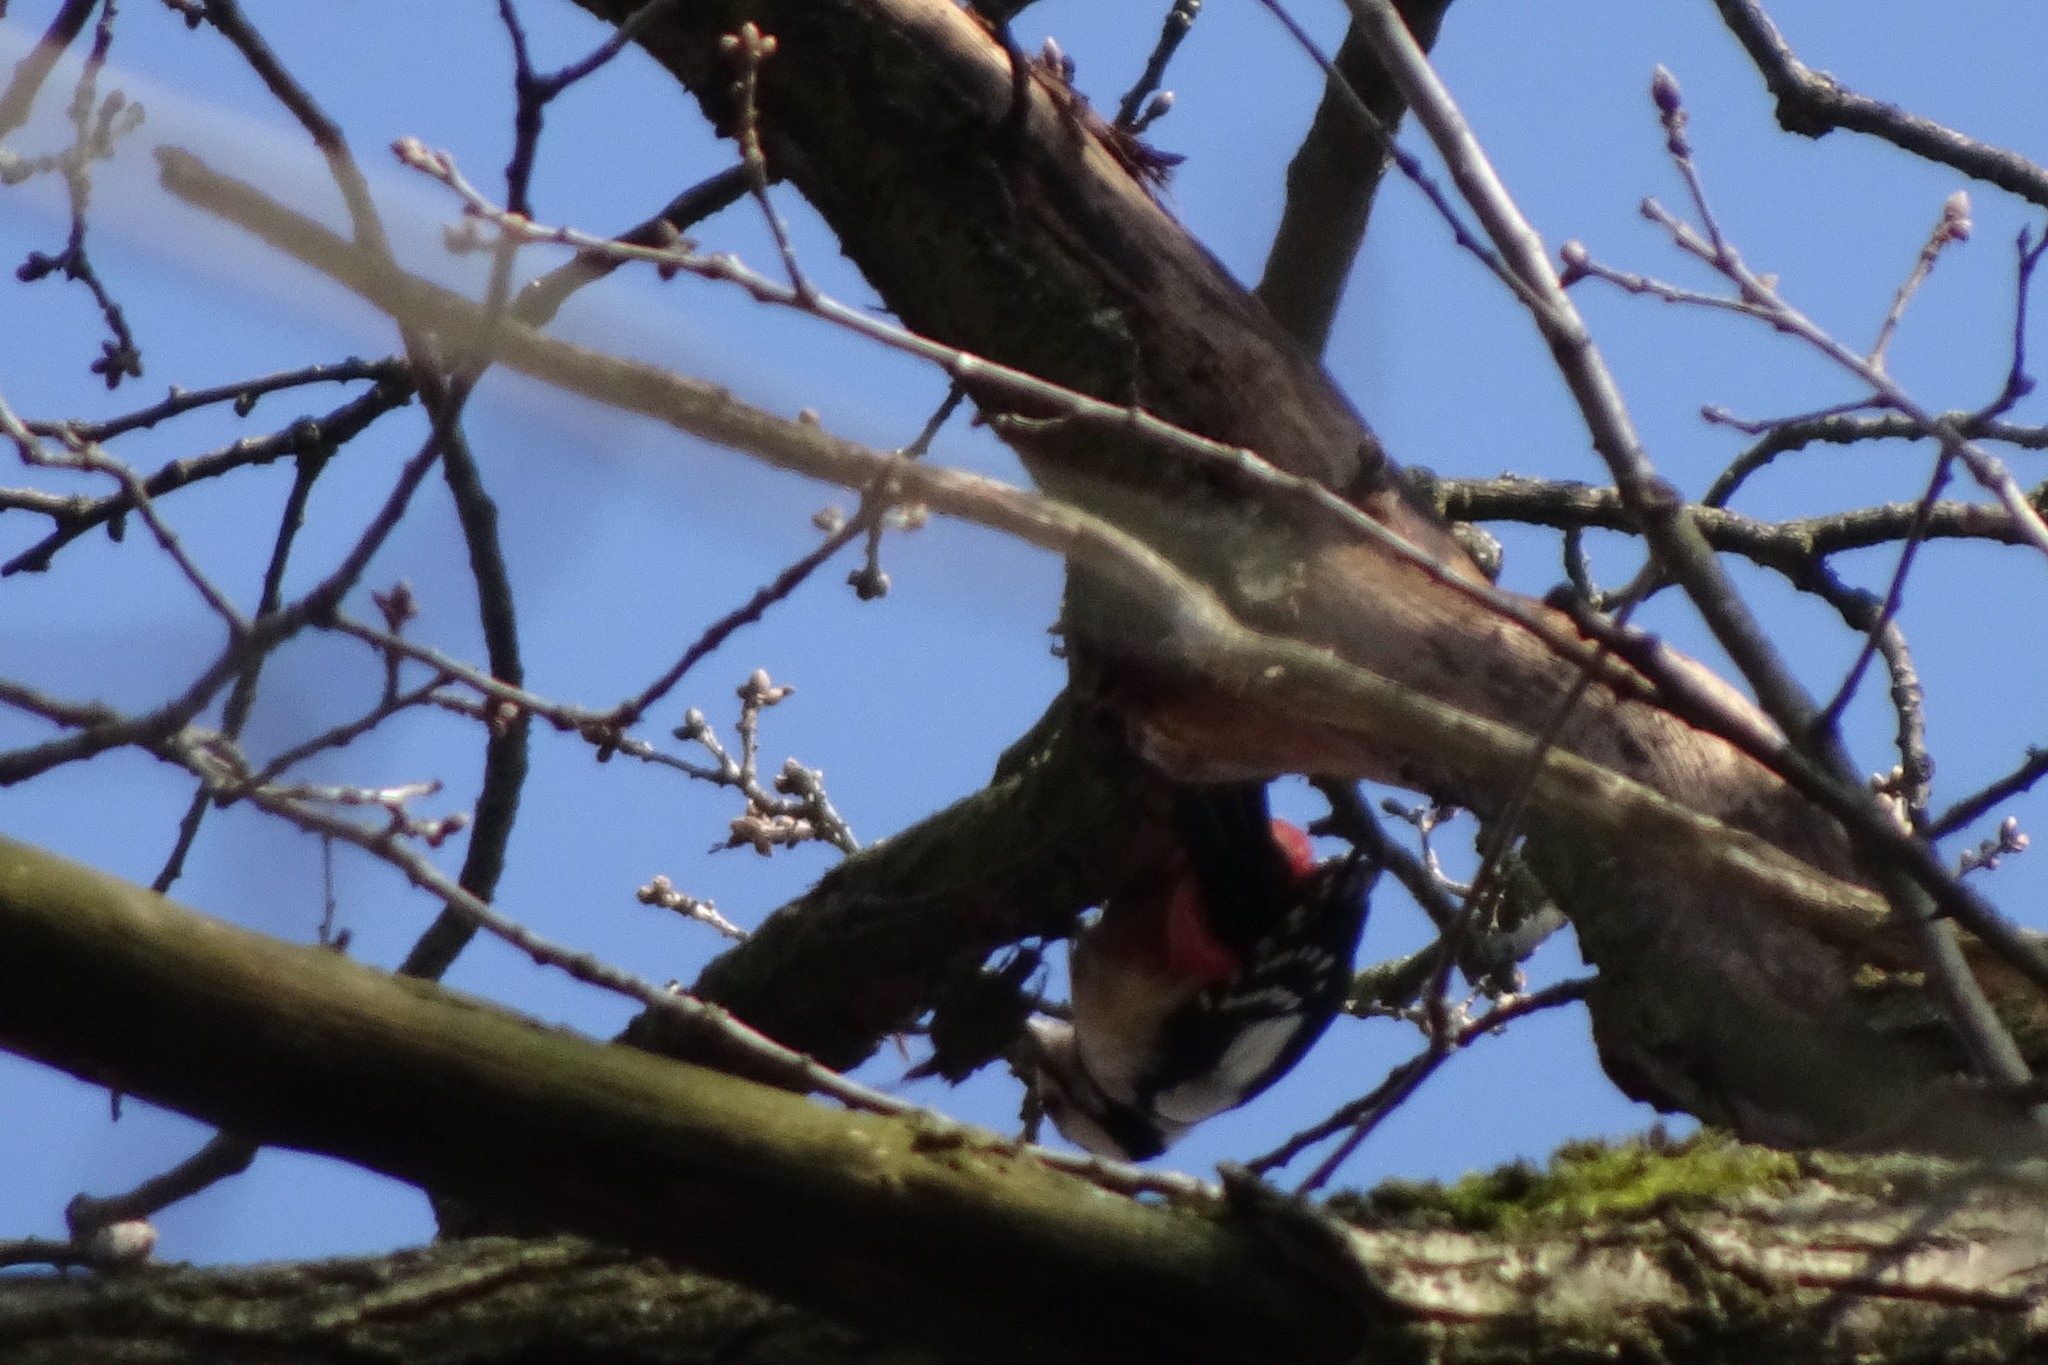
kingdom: Animalia
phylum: Chordata
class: Aves
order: Piciformes
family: Picidae
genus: Dendrocopos
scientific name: Dendrocopos major
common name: Great spotted woodpecker
